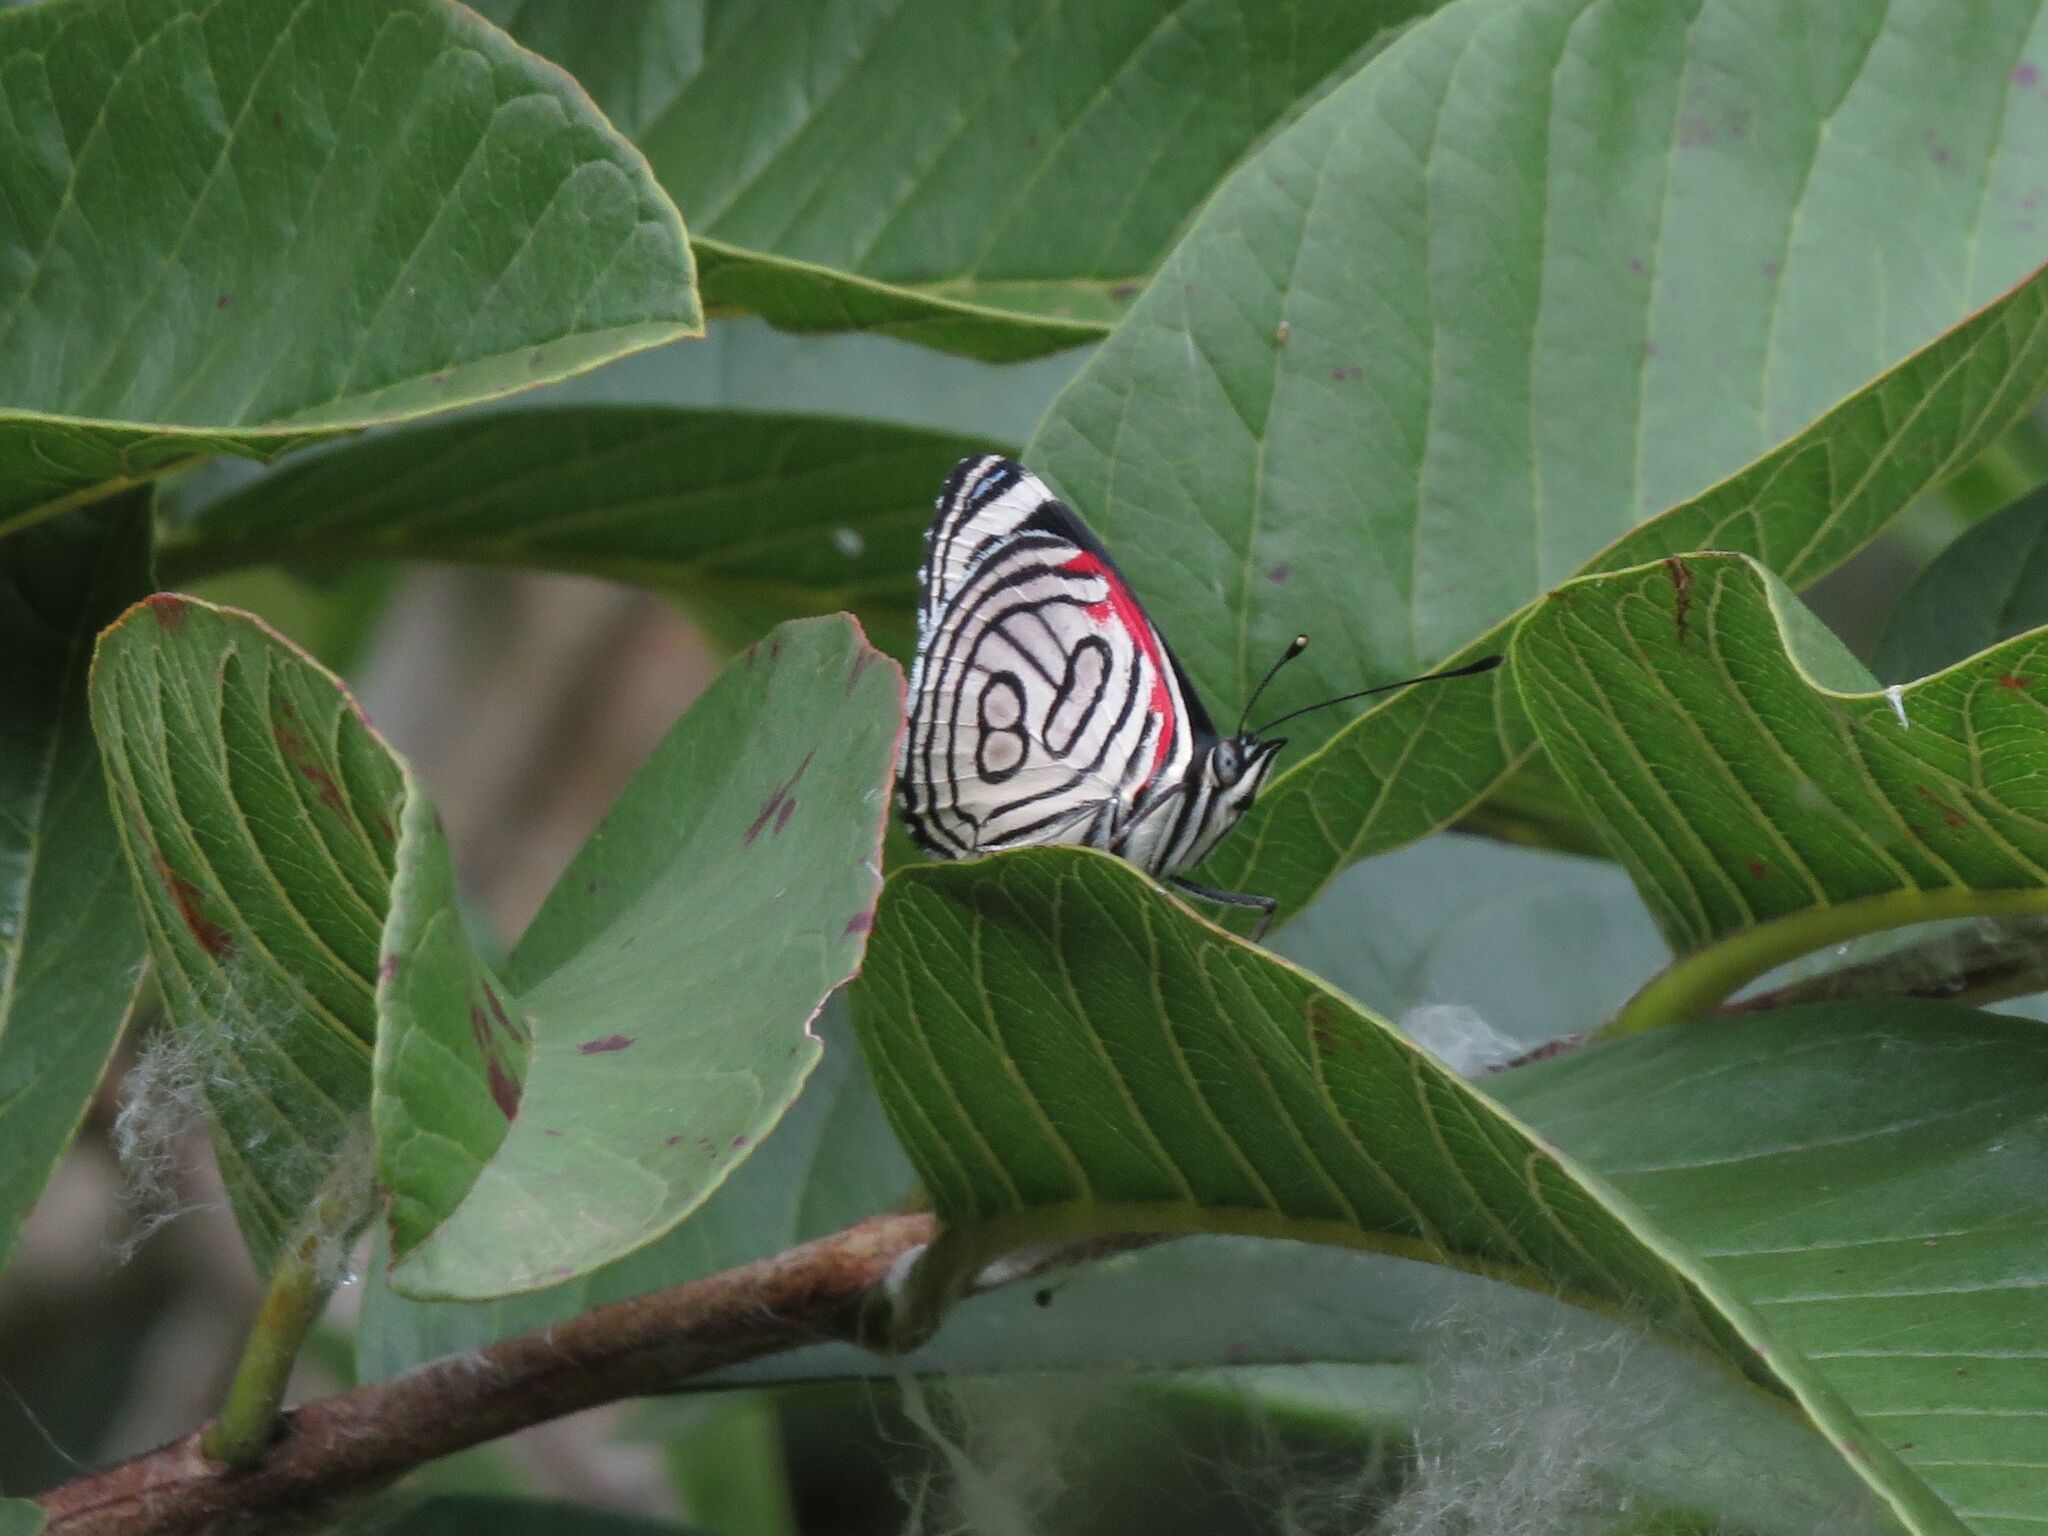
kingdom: Animalia
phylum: Arthropoda
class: Insecta
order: Lepidoptera
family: Nymphalidae
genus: Diaethria
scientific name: Diaethria candrena
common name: Number eighty
